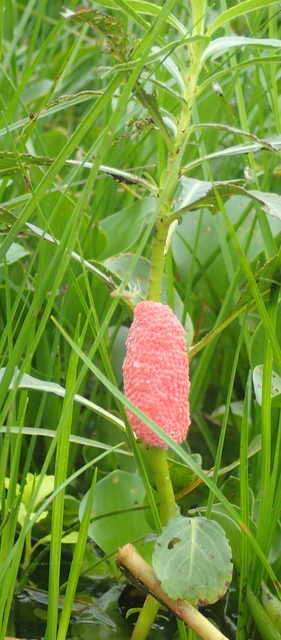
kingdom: Animalia
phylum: Mollusca
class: Gastropoda
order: Architaenioglossa
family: Ampullariidae
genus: Pomacea
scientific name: Pomacea maculata
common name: Giant applesnail
